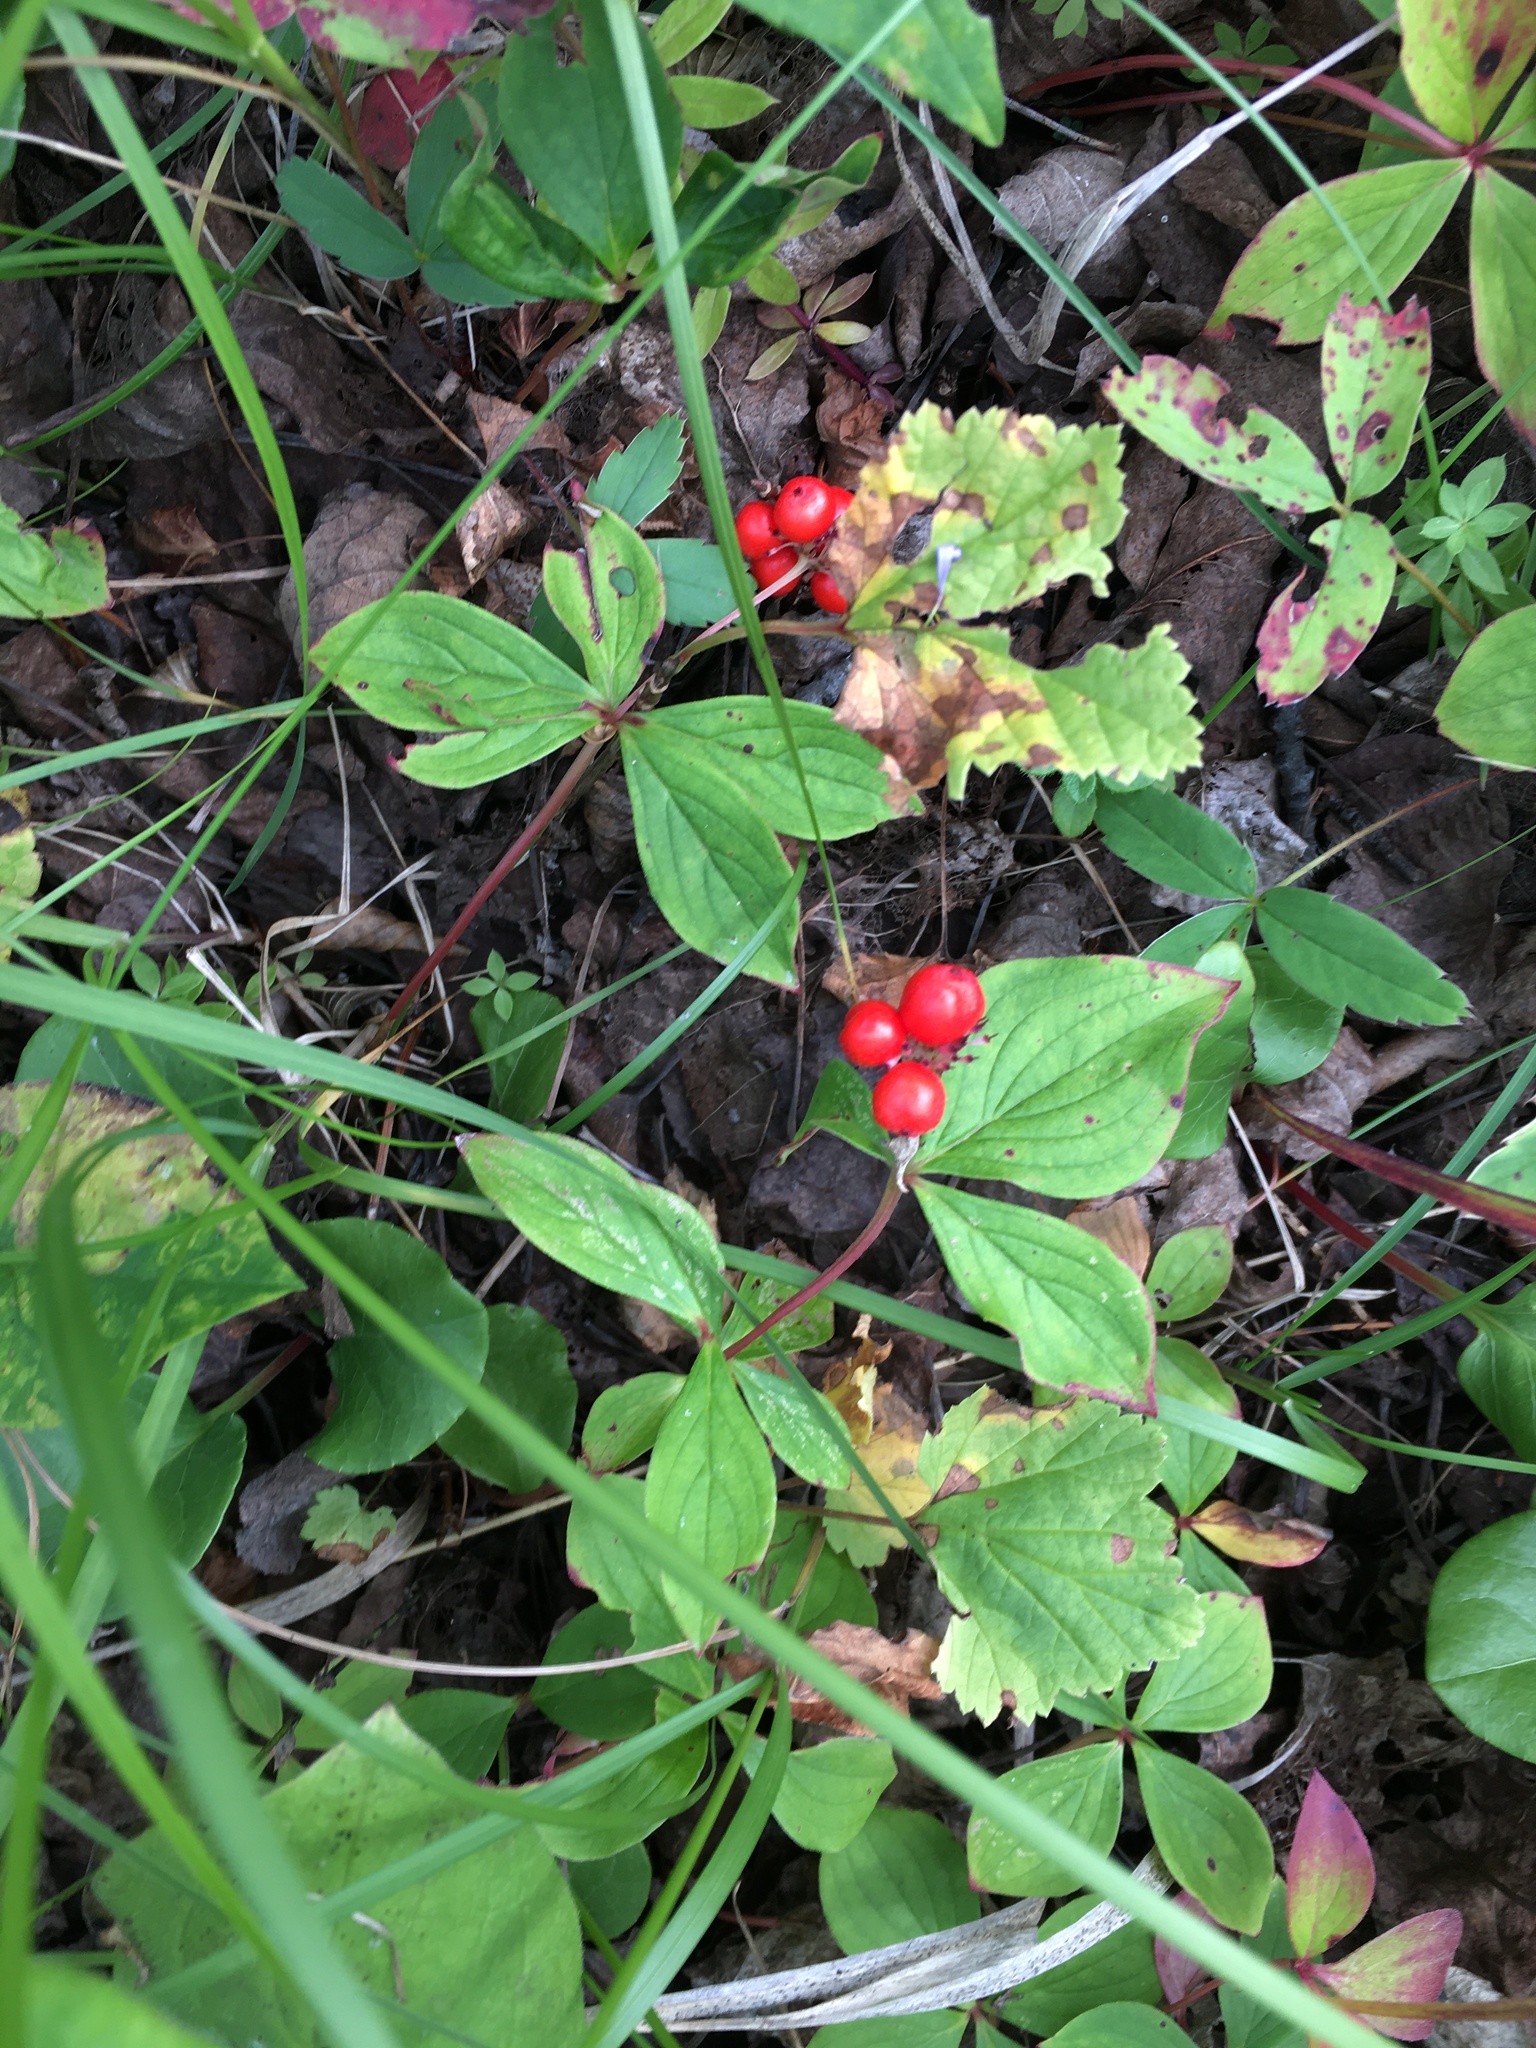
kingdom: Plantae
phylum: Tracheophyta
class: Magnoliopsida
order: Cornales
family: Cornaceae
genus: Cornus
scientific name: Cornus canadensis
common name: Creeping dogwood
